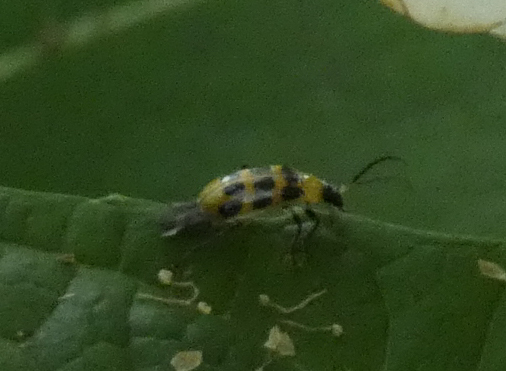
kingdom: Animalia
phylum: Arthropoda
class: Insecta
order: Coleoptera
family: Chrysomelidae
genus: Diabrotica
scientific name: Diabrotica undecimpunctata
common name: Spotted cucumber beetle
